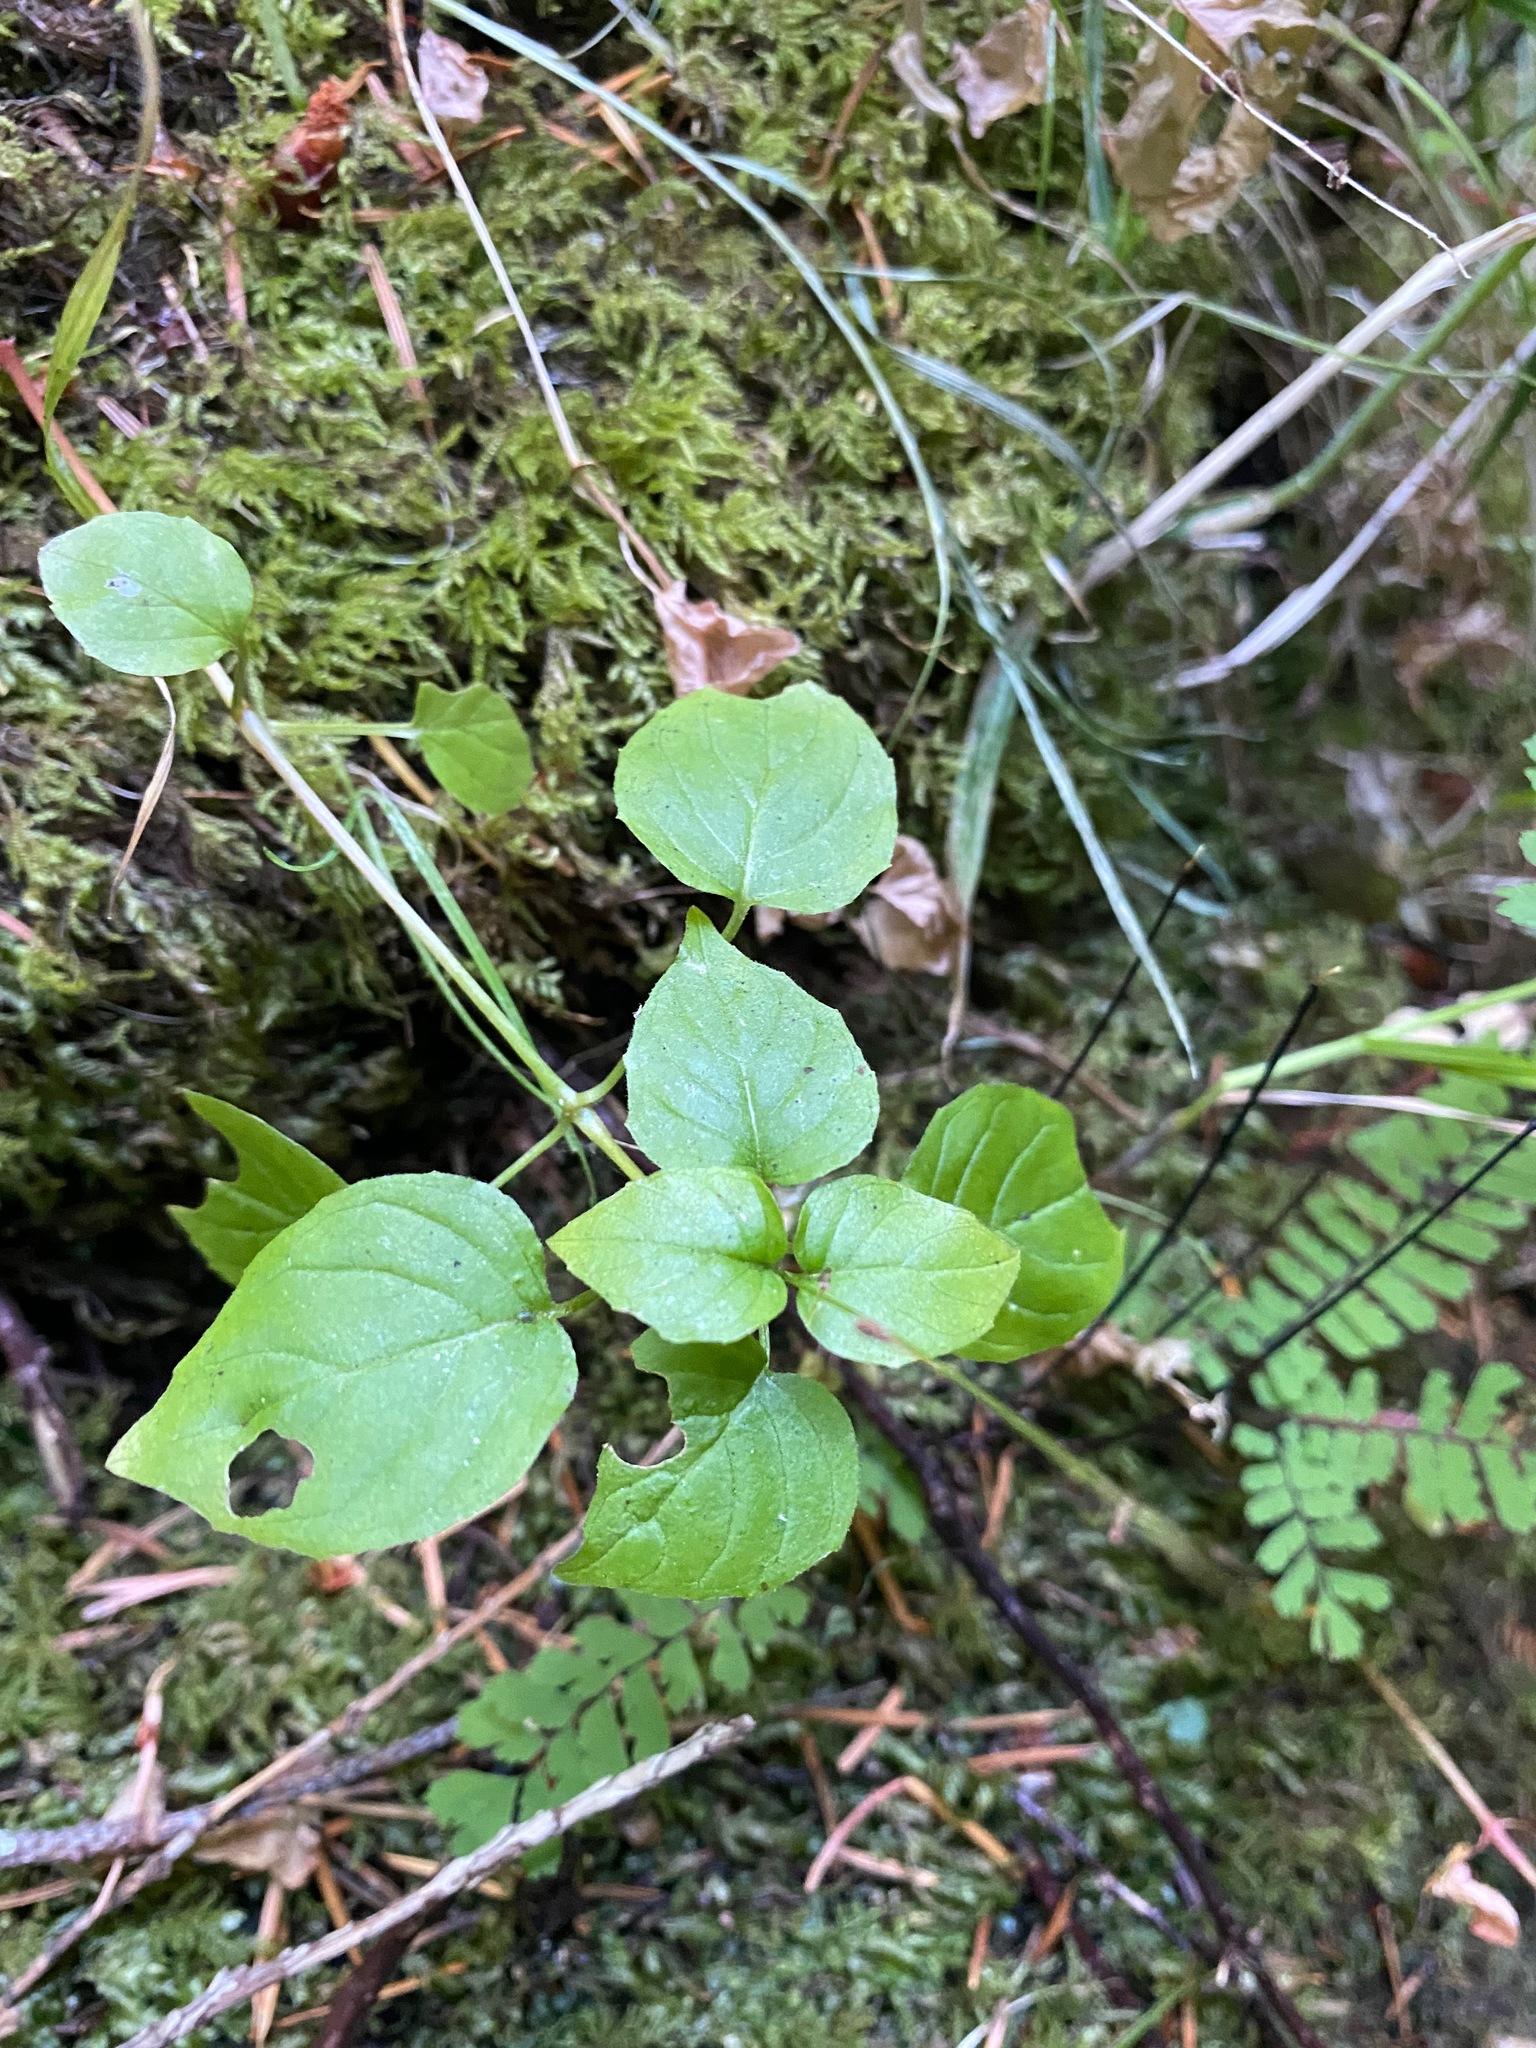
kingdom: Plantae
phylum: Tracheophyta
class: Magnoliopsida
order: Myrtales
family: Onagraceae
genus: Circaea
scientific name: Circaea alpina
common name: Alpine enchanter's-nightshade
